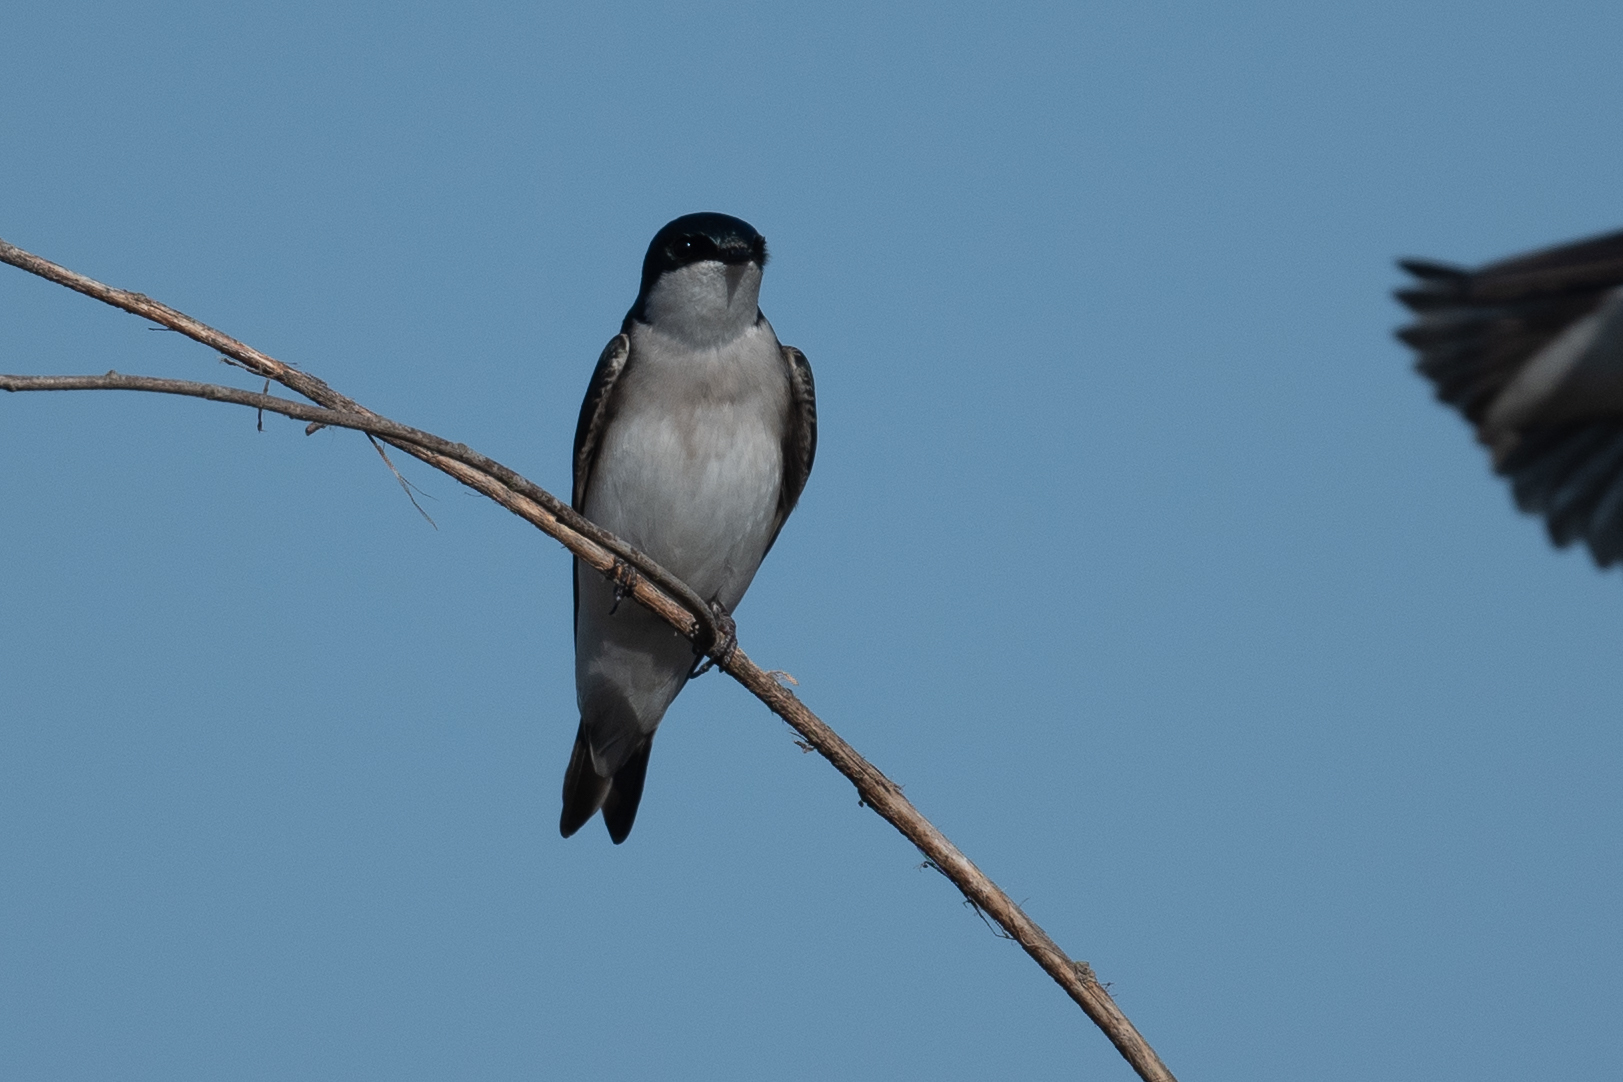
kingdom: Animalia
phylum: Chordata
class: Aves
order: Passeriformes
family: Hirundinidae
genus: Tachycineta
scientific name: Tachycineta bicolor
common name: Tree swallow
